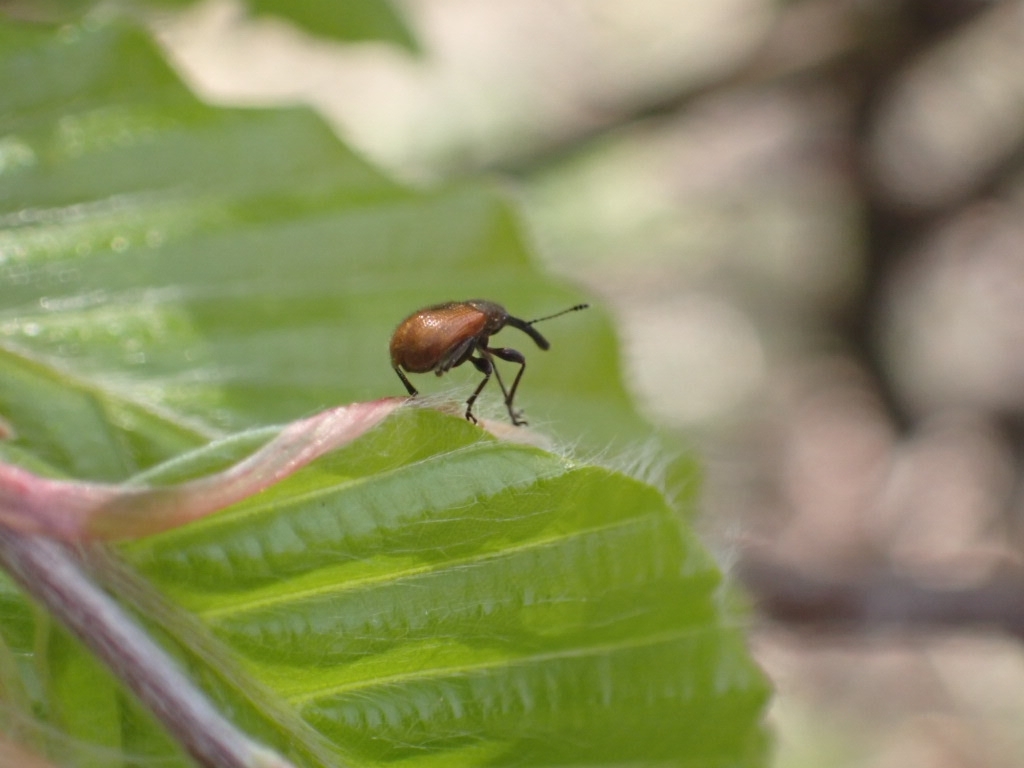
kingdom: Animalia
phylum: Arthropoda
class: Insecta
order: Coleoptera
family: Rhynchitidae
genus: Tatianaerhynchites
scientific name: Tatianaerhynchites aequatus
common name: Apple fruit rhynchites
